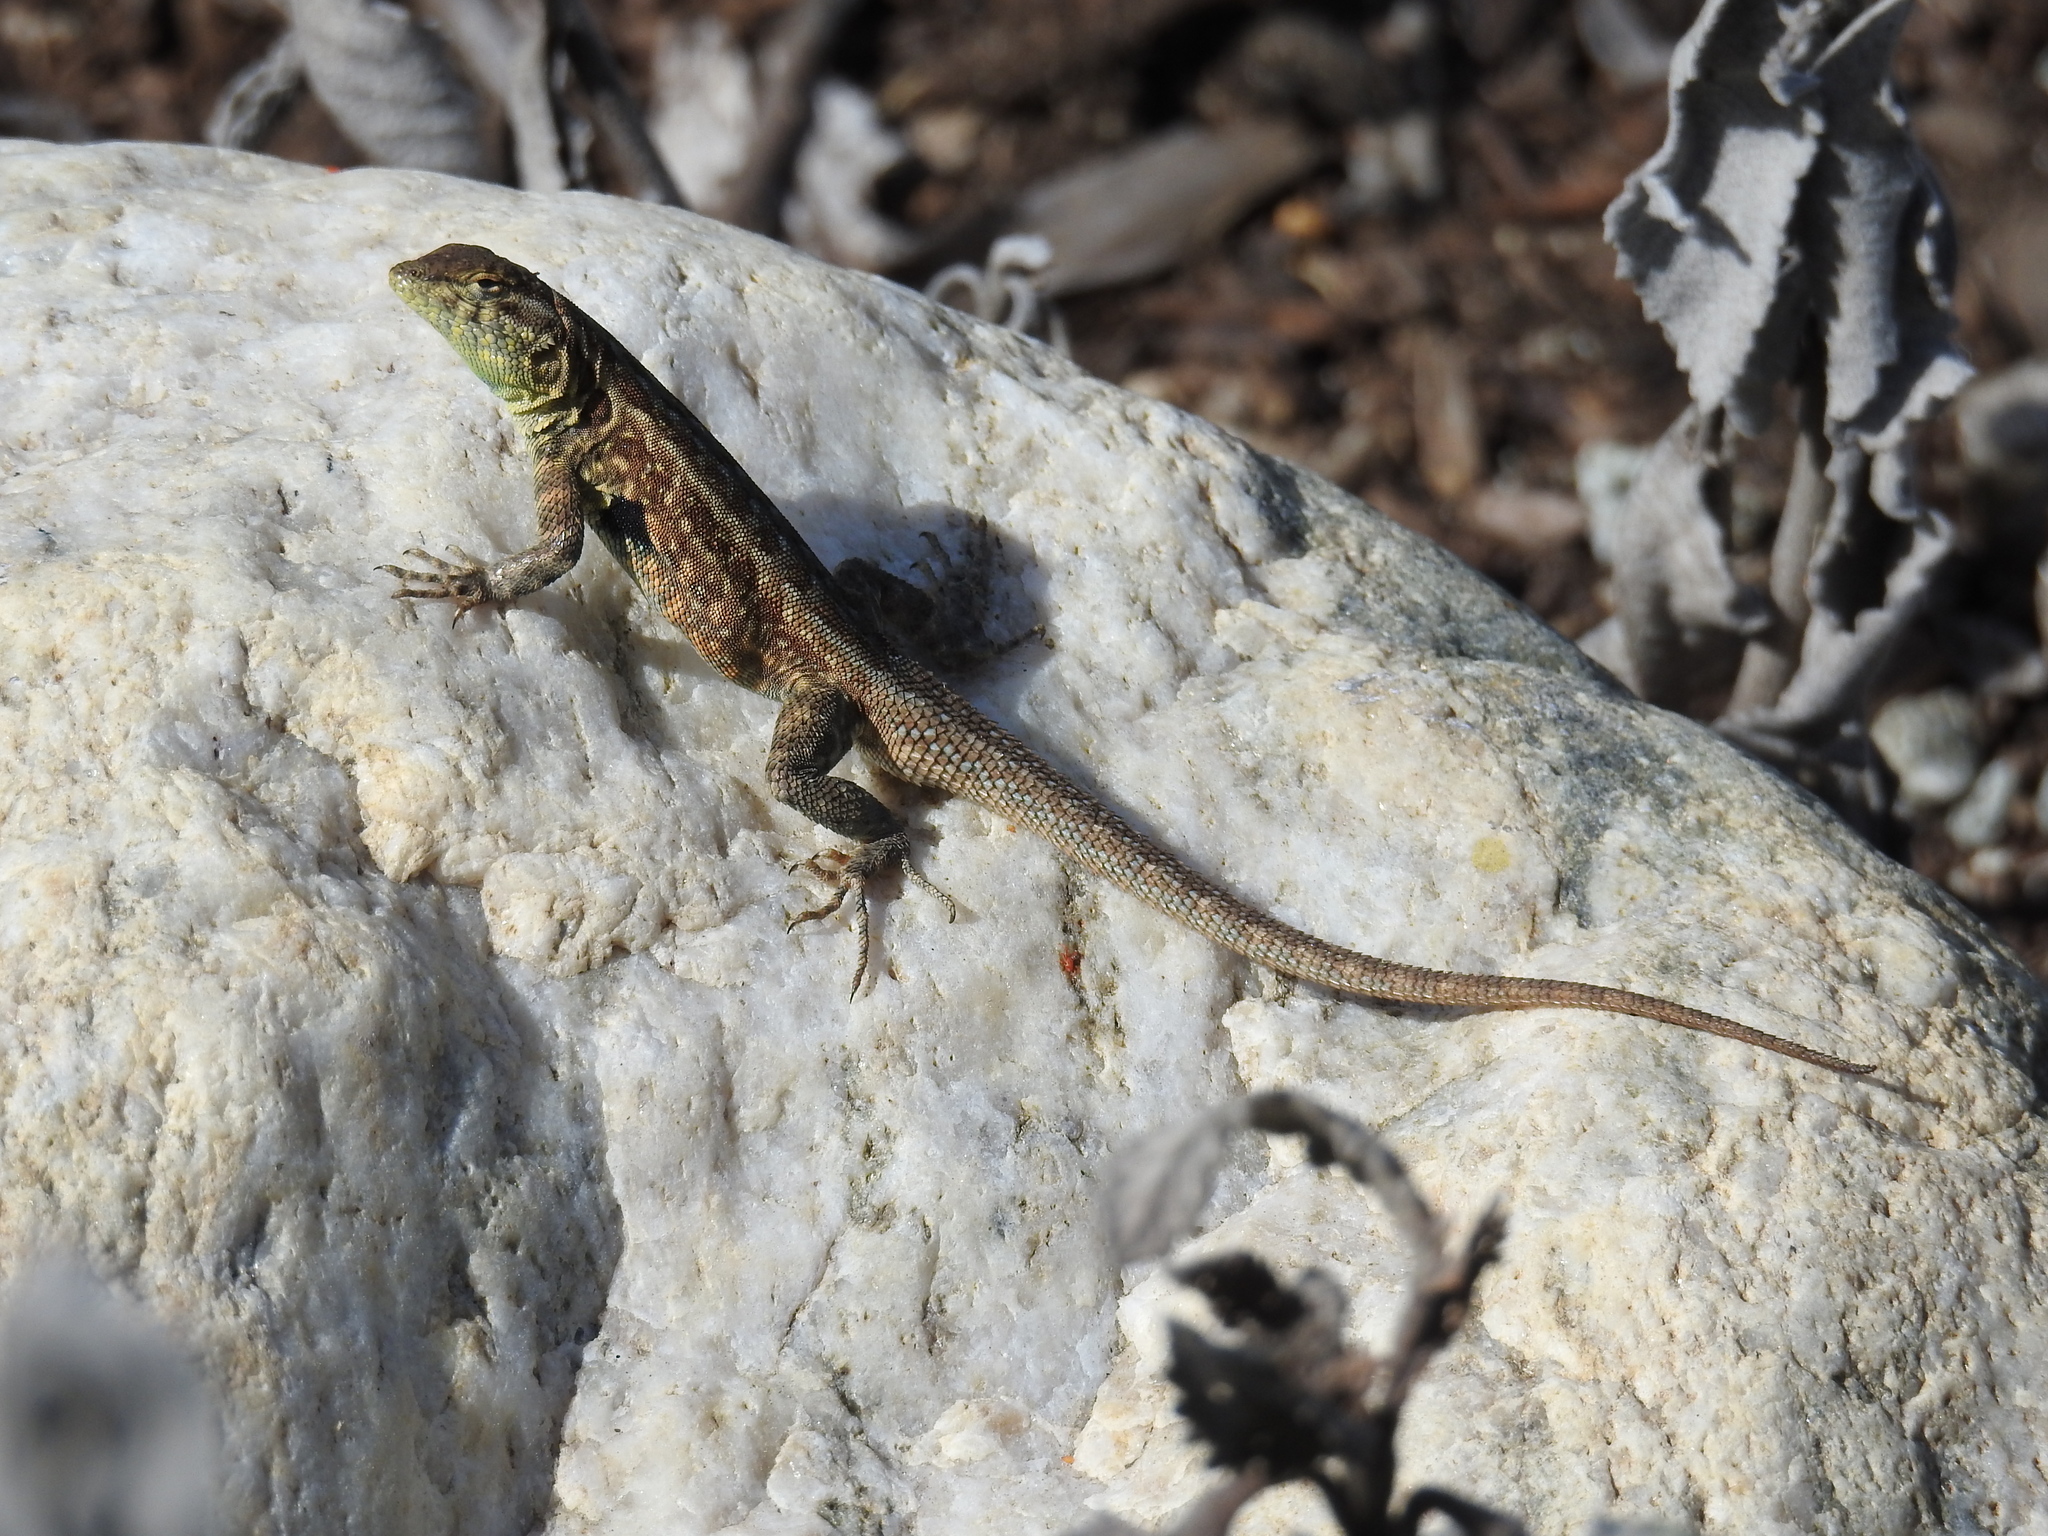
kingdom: Animalia
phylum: Chordata
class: Squamata
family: Phrynosomatidae
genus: Uta
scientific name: Uta stansburiana
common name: Side-blotched lizard
